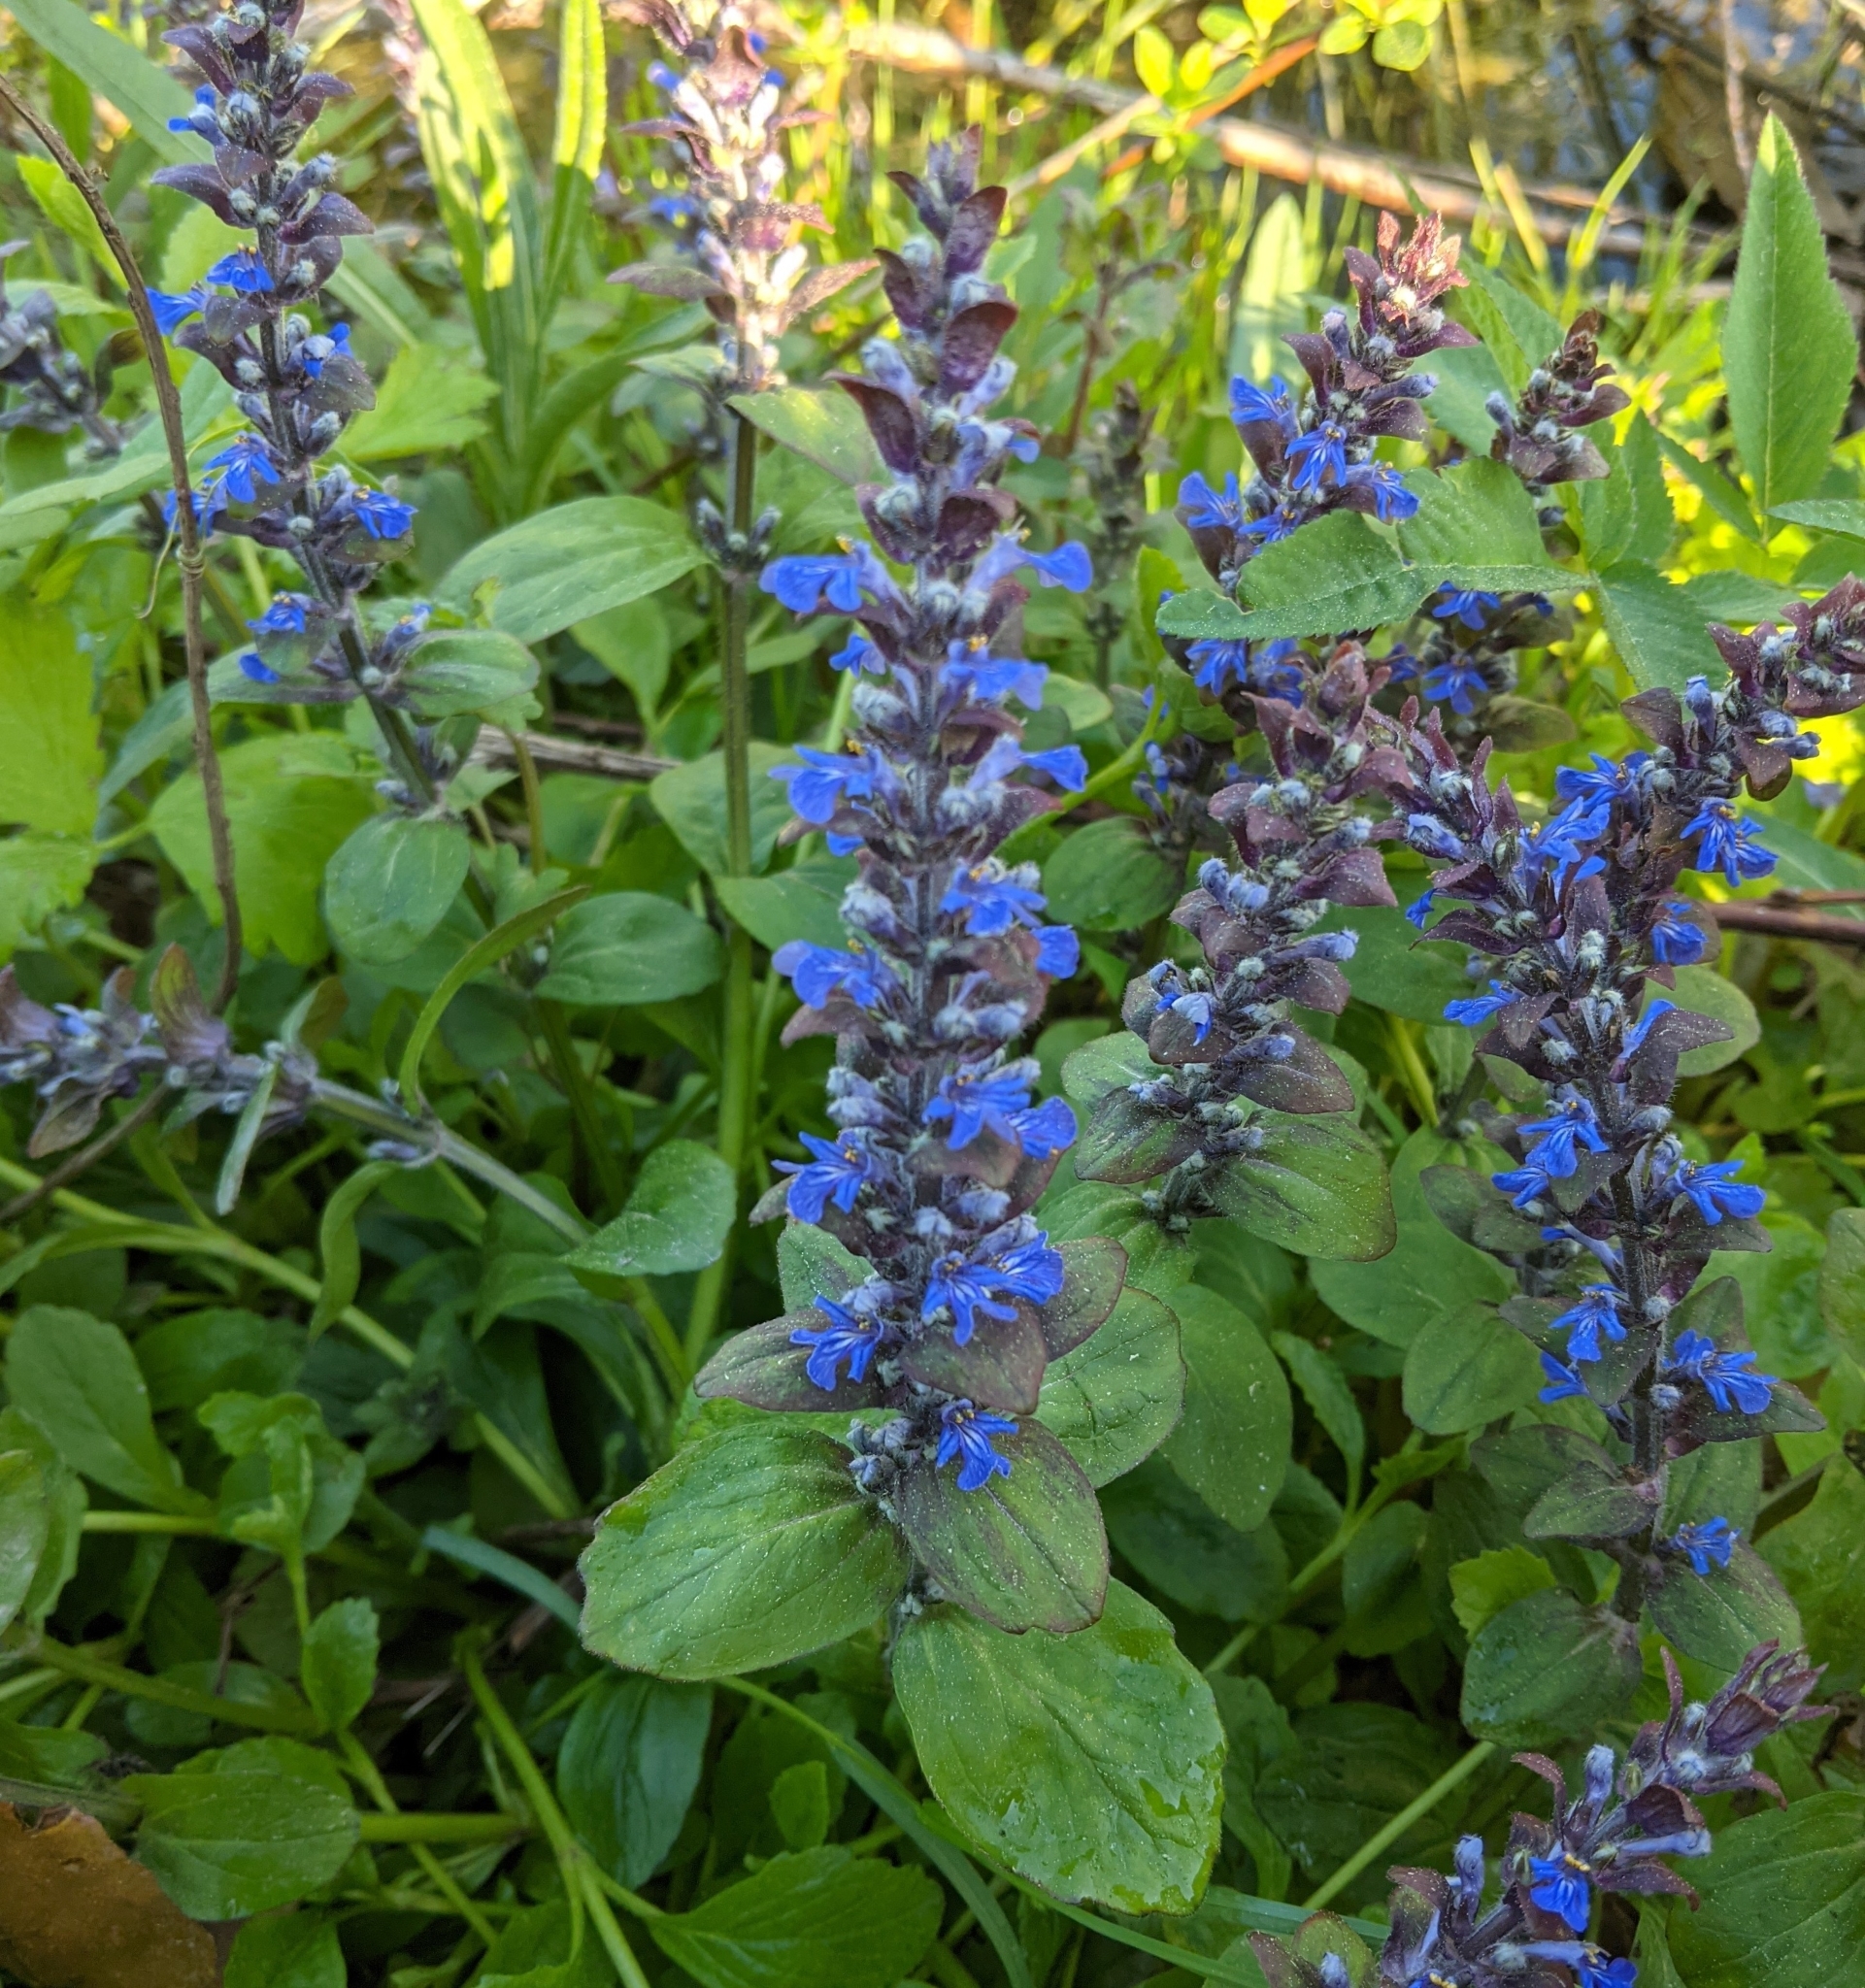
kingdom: Plantae
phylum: Tracheophyta
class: Magnoliopsida
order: Lamiales
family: Lamiaceae
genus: Ajuga
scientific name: Ajuga reptans
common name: Bugle
